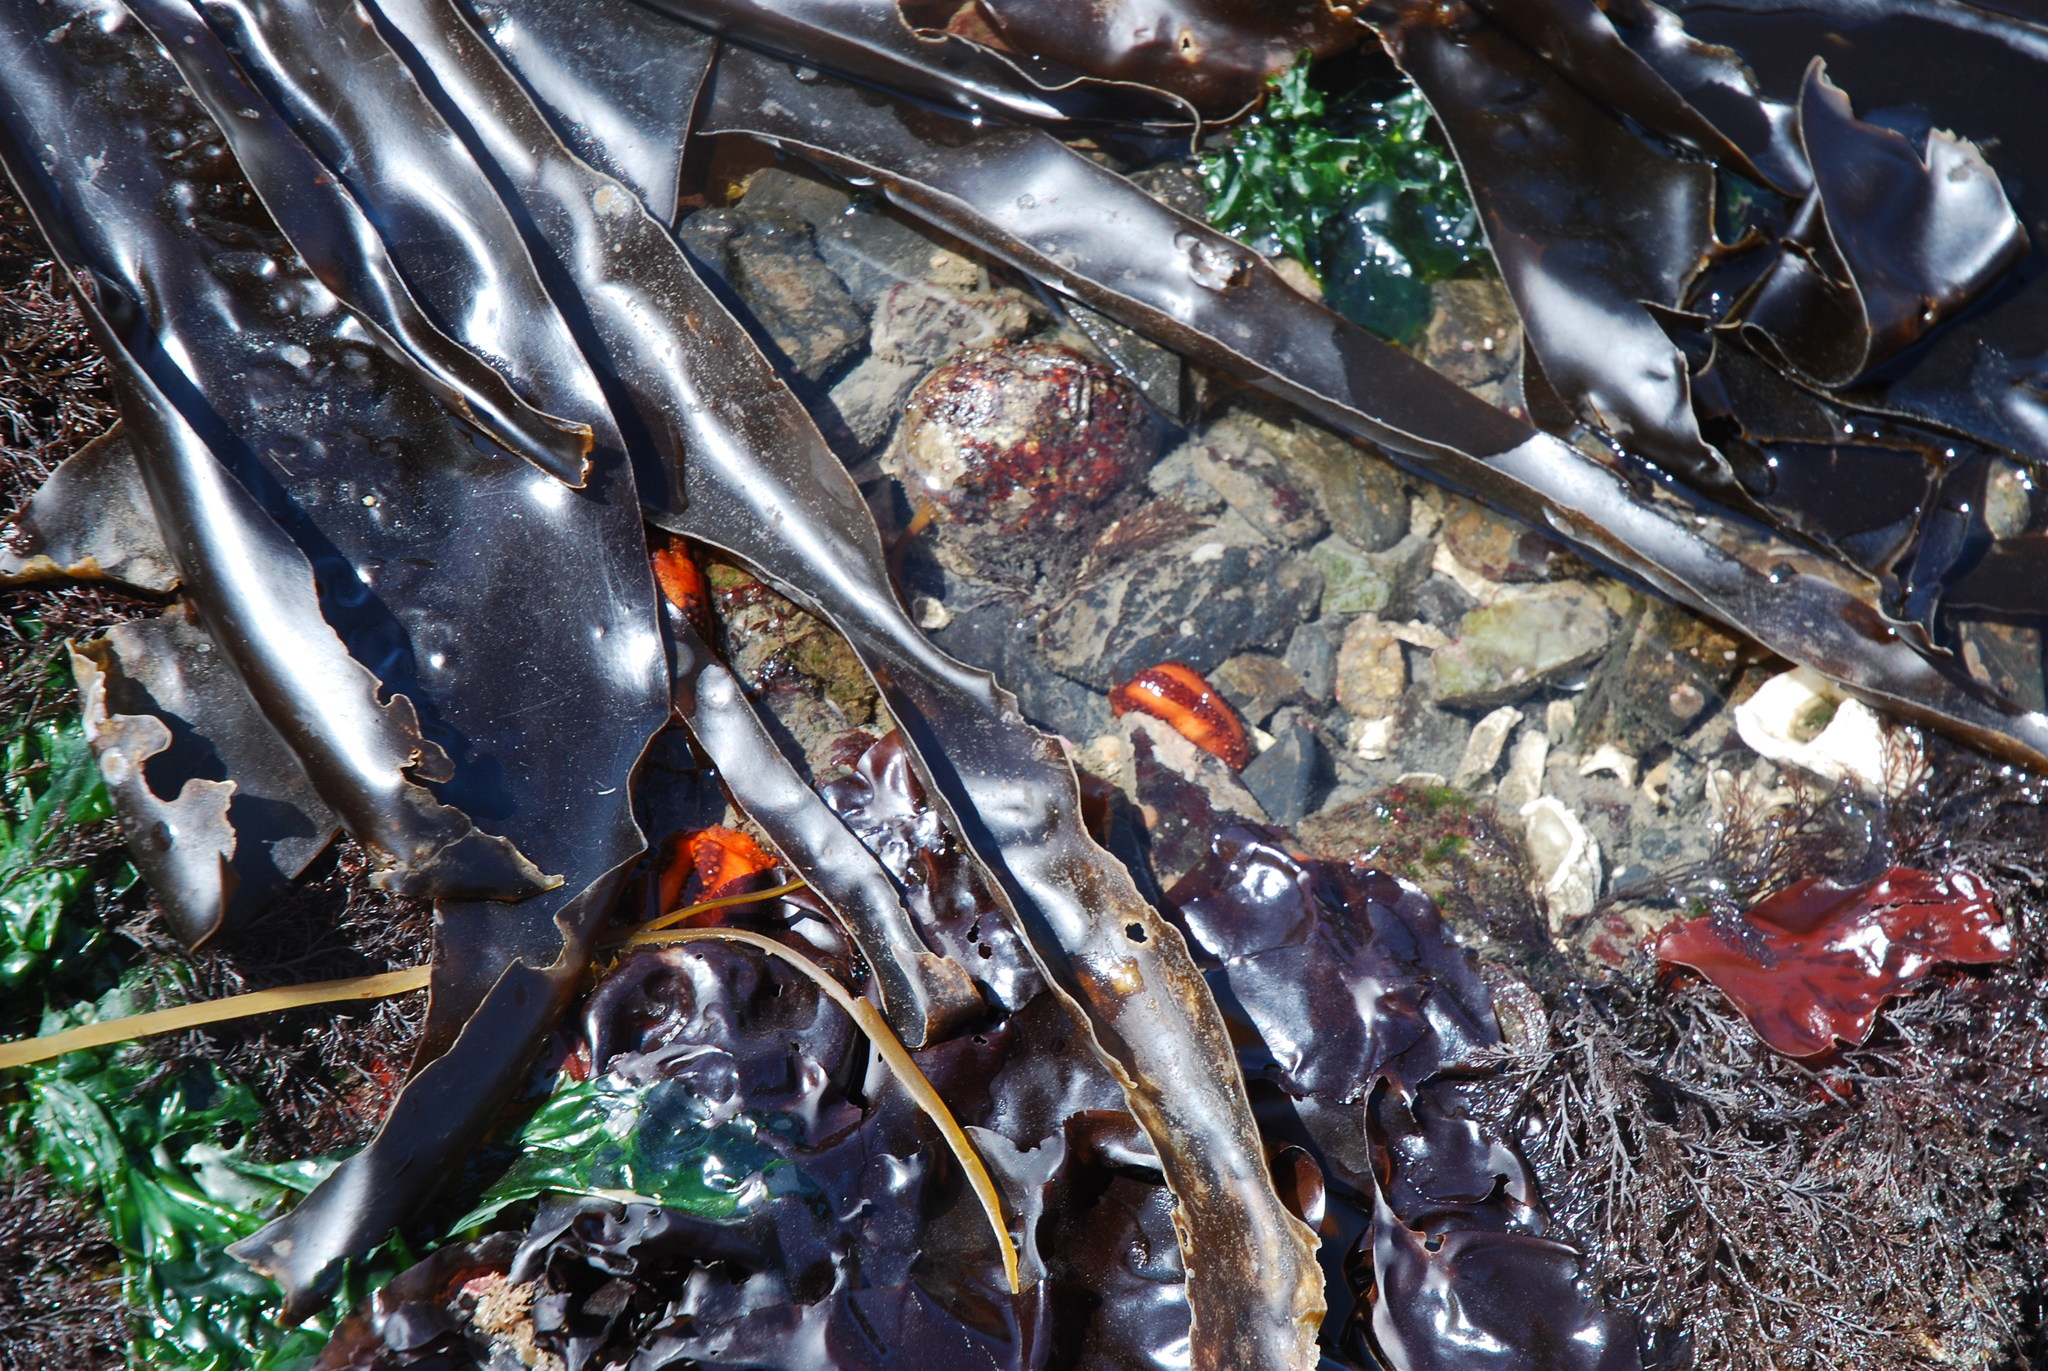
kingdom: Animalia
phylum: Echinodermata
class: Holothuroidea
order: Dendrochirotida
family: Cucumariidae
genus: Cucumaria
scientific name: Cucumaria miniata
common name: Orange sea cucumber
